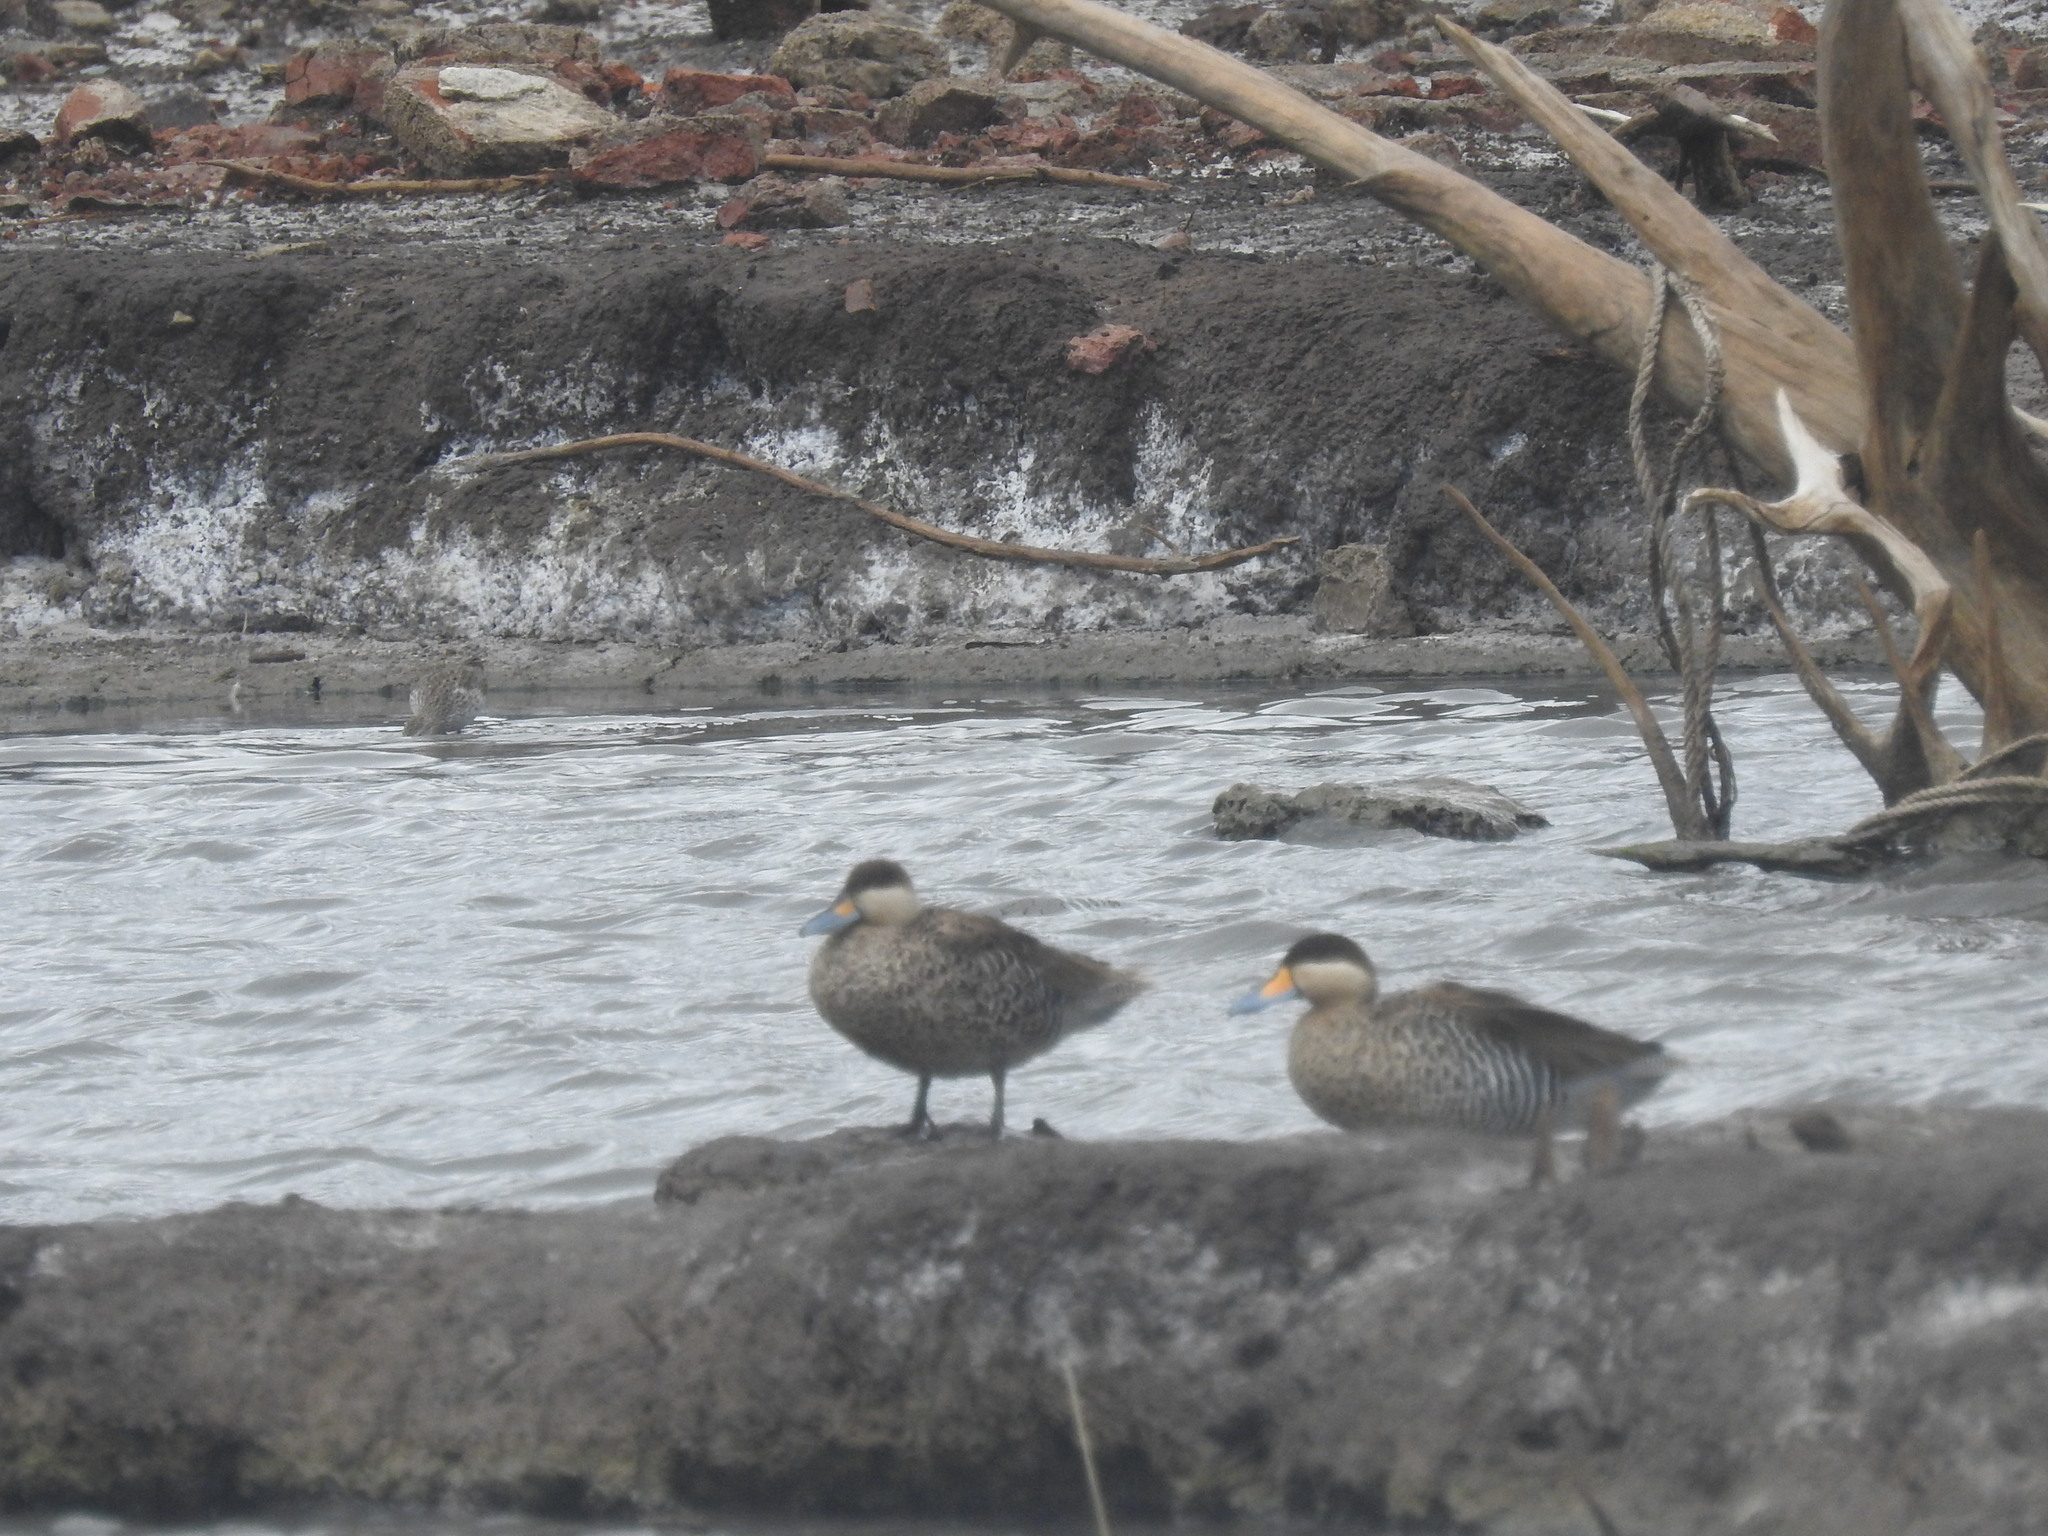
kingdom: Animalia
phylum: Chordata
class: Aves
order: Anseriformes
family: Anatidae
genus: Spatula
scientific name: Spatula versicolor
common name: Silver teal
